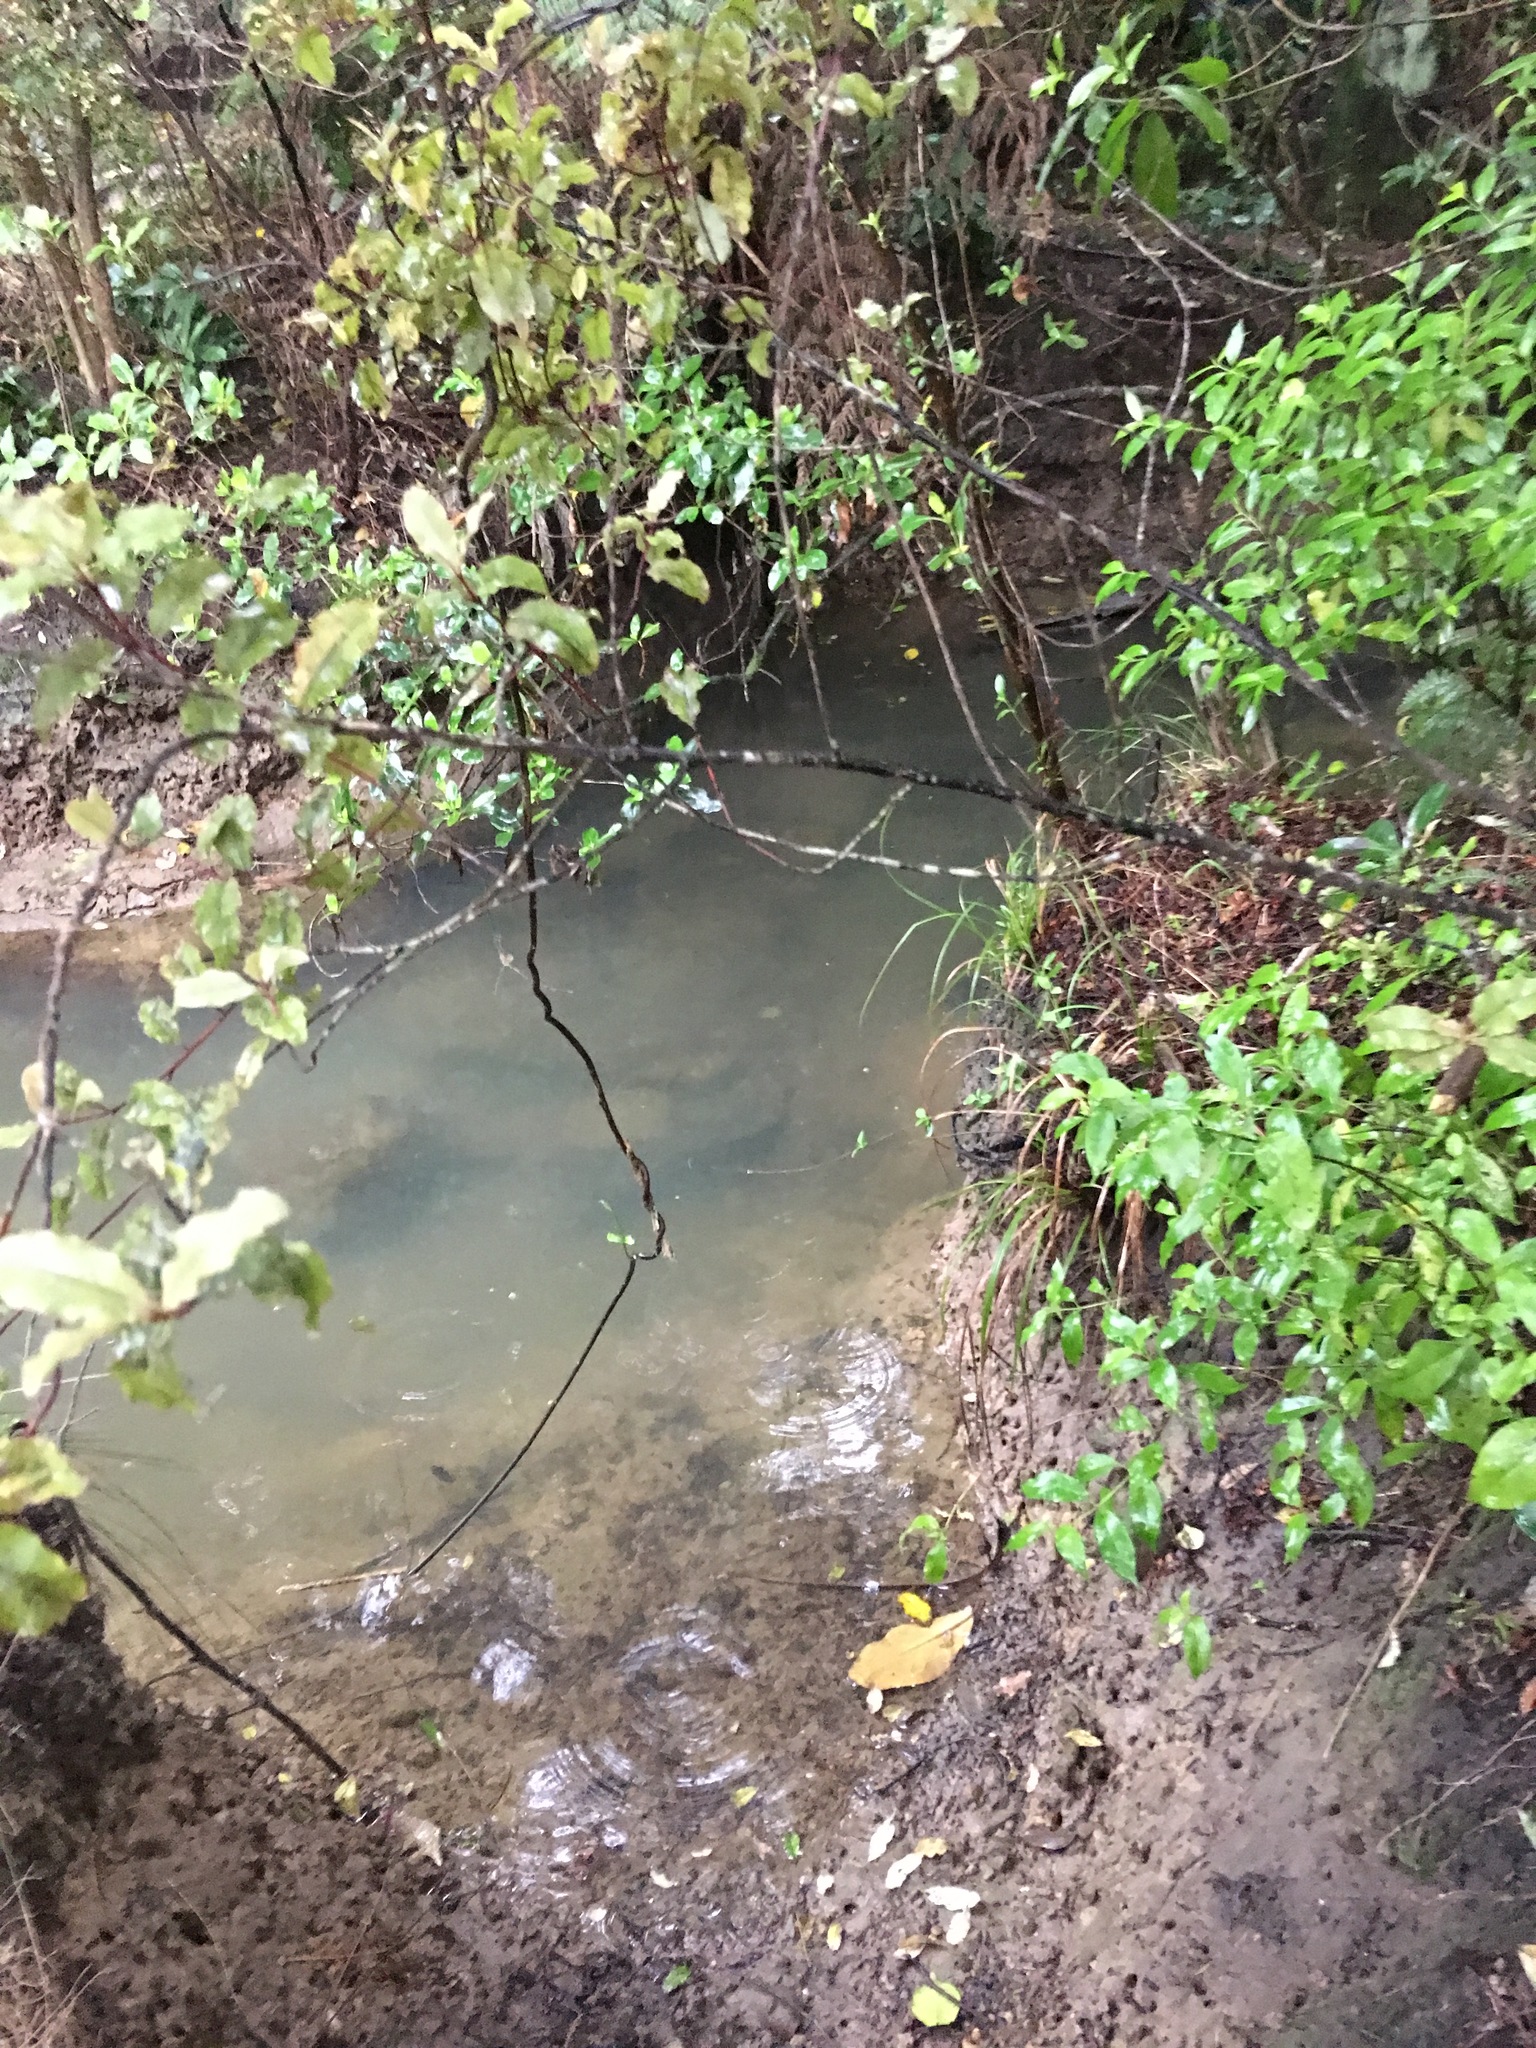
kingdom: Plantae
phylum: Tracheophyta
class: Magnoliopsida
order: Gentianales
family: Loganiaceae
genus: Geniostoma
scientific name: Geniostoma ligustrifolium
